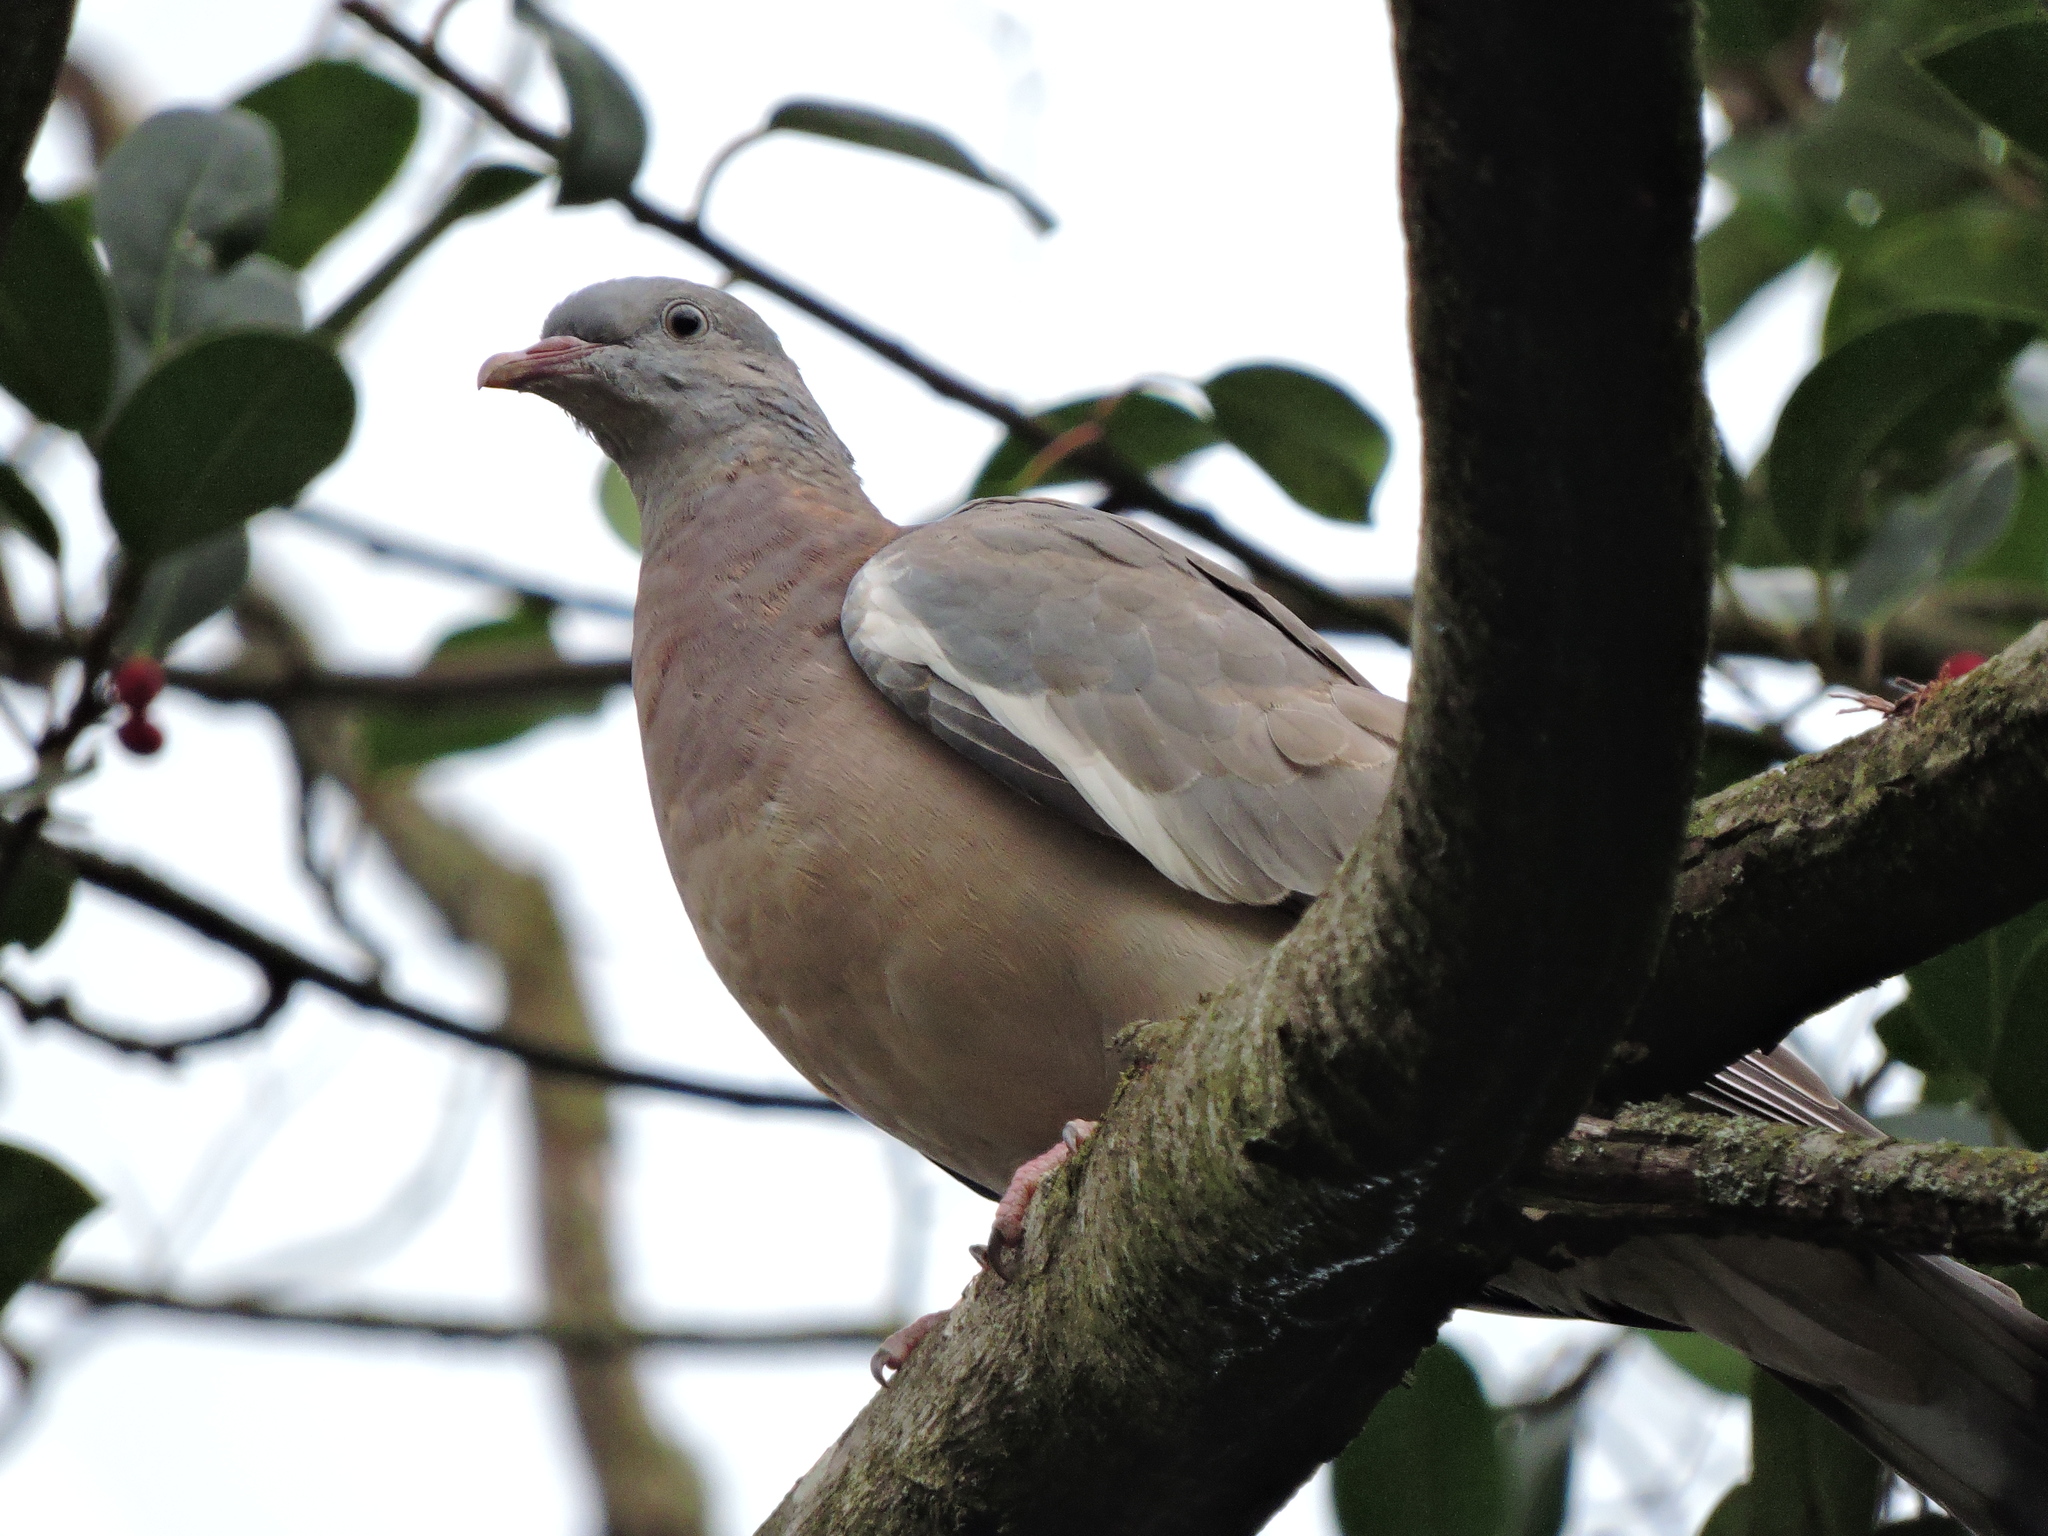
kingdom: Animalia
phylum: Chordata
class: Aves
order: Columbiformes
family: Columbidae
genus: Columba
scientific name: Columba palumbus
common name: Common wood pigeon
